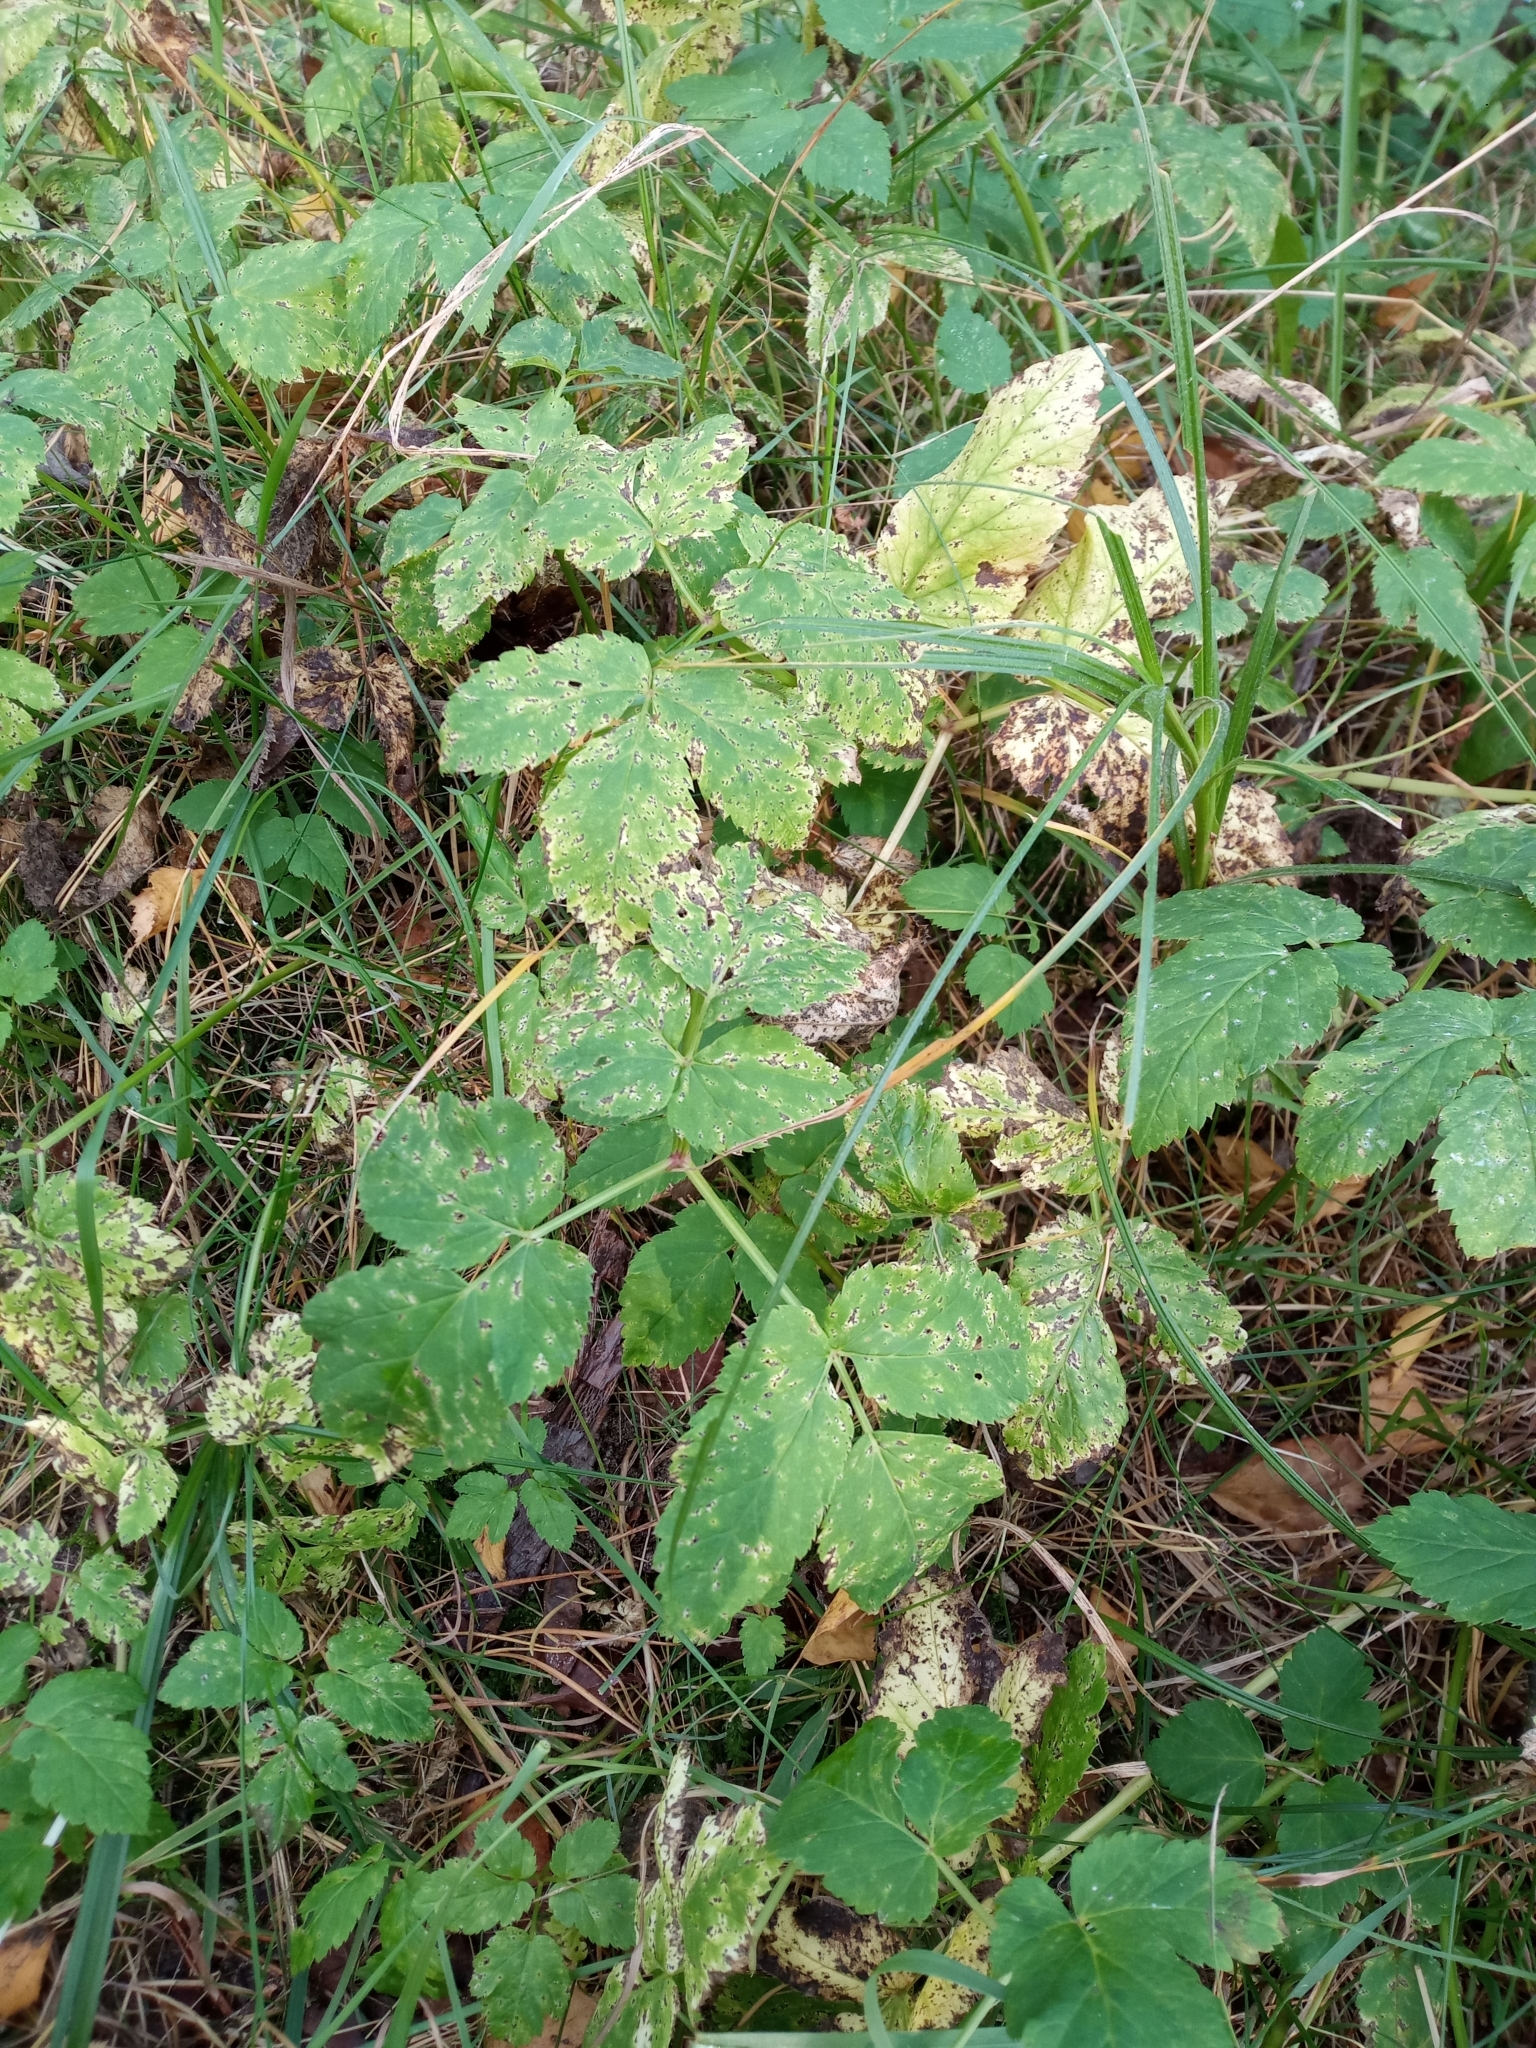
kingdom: Plantae
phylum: Tracheophyta
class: Magnoliopsida
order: Apiales
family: Apiaceae
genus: Aegopodium
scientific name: Aegopodium podagraria
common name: Ground-elder
